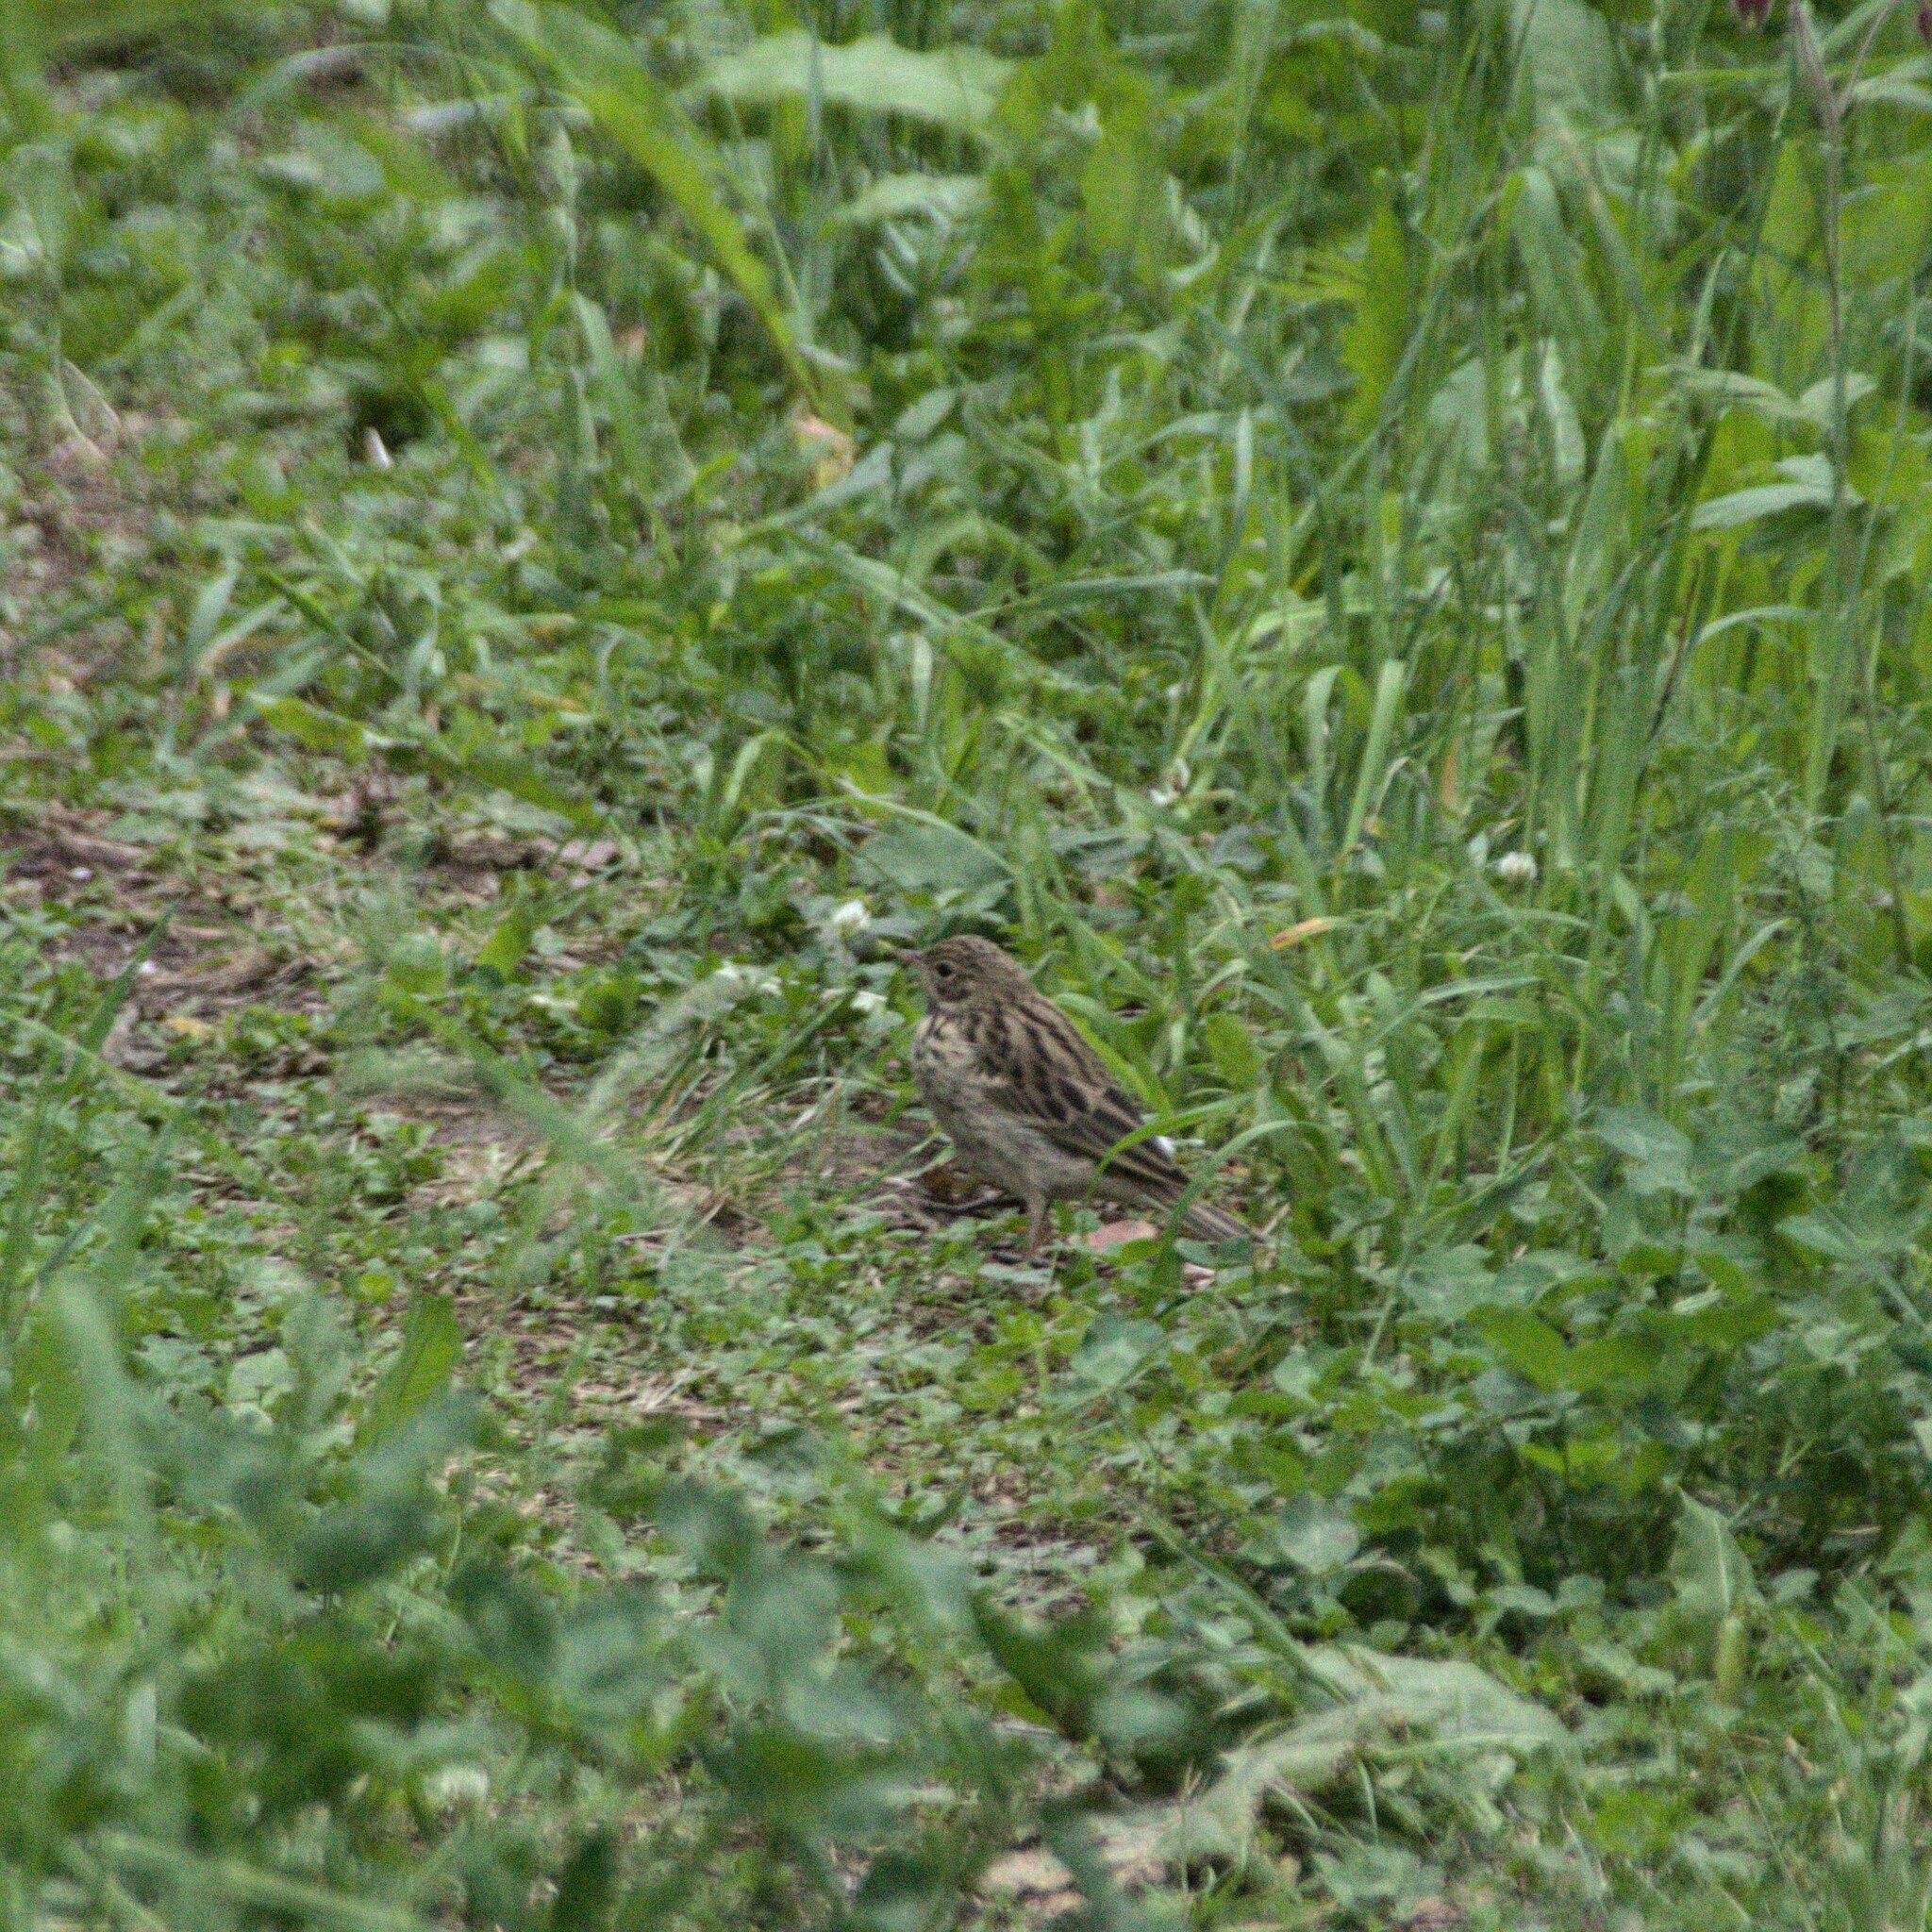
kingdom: Animalia
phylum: Chordata
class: Aves
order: Passeriformes
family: Motacillidae
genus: Anthus
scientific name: Anthus trivialis
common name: Tree pipit
